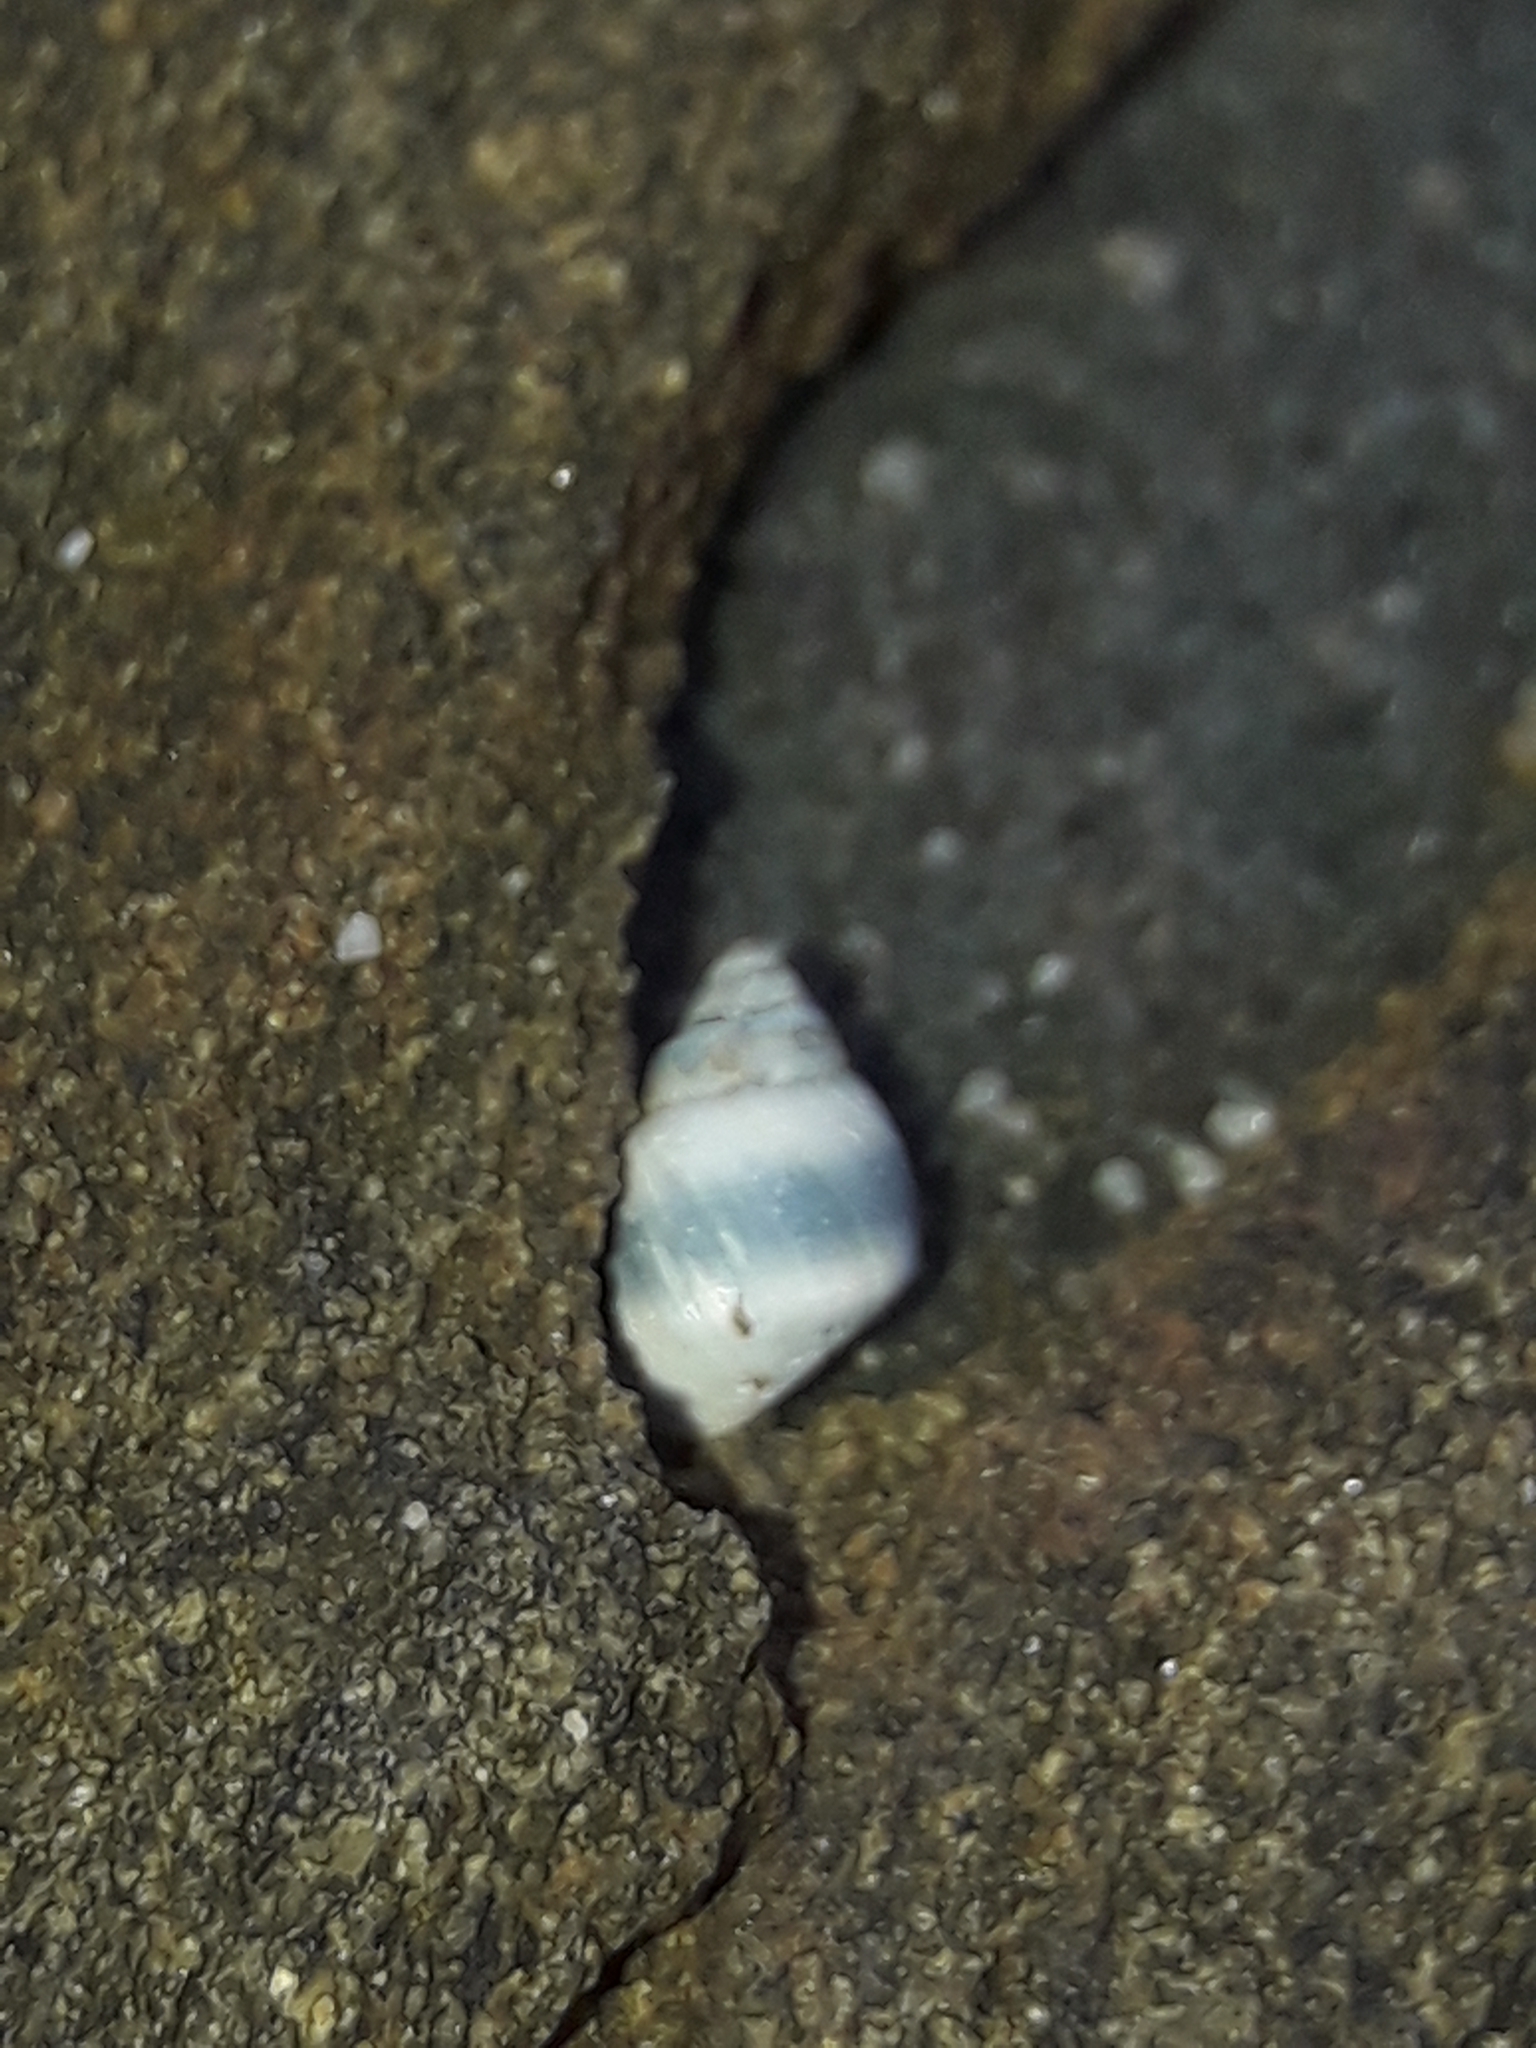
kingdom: Animalia
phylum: Mollusca
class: Gastropoda
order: Littorinimorpha
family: Littorinidae
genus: Austrolittorina
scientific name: Austrolittorina antipodum
